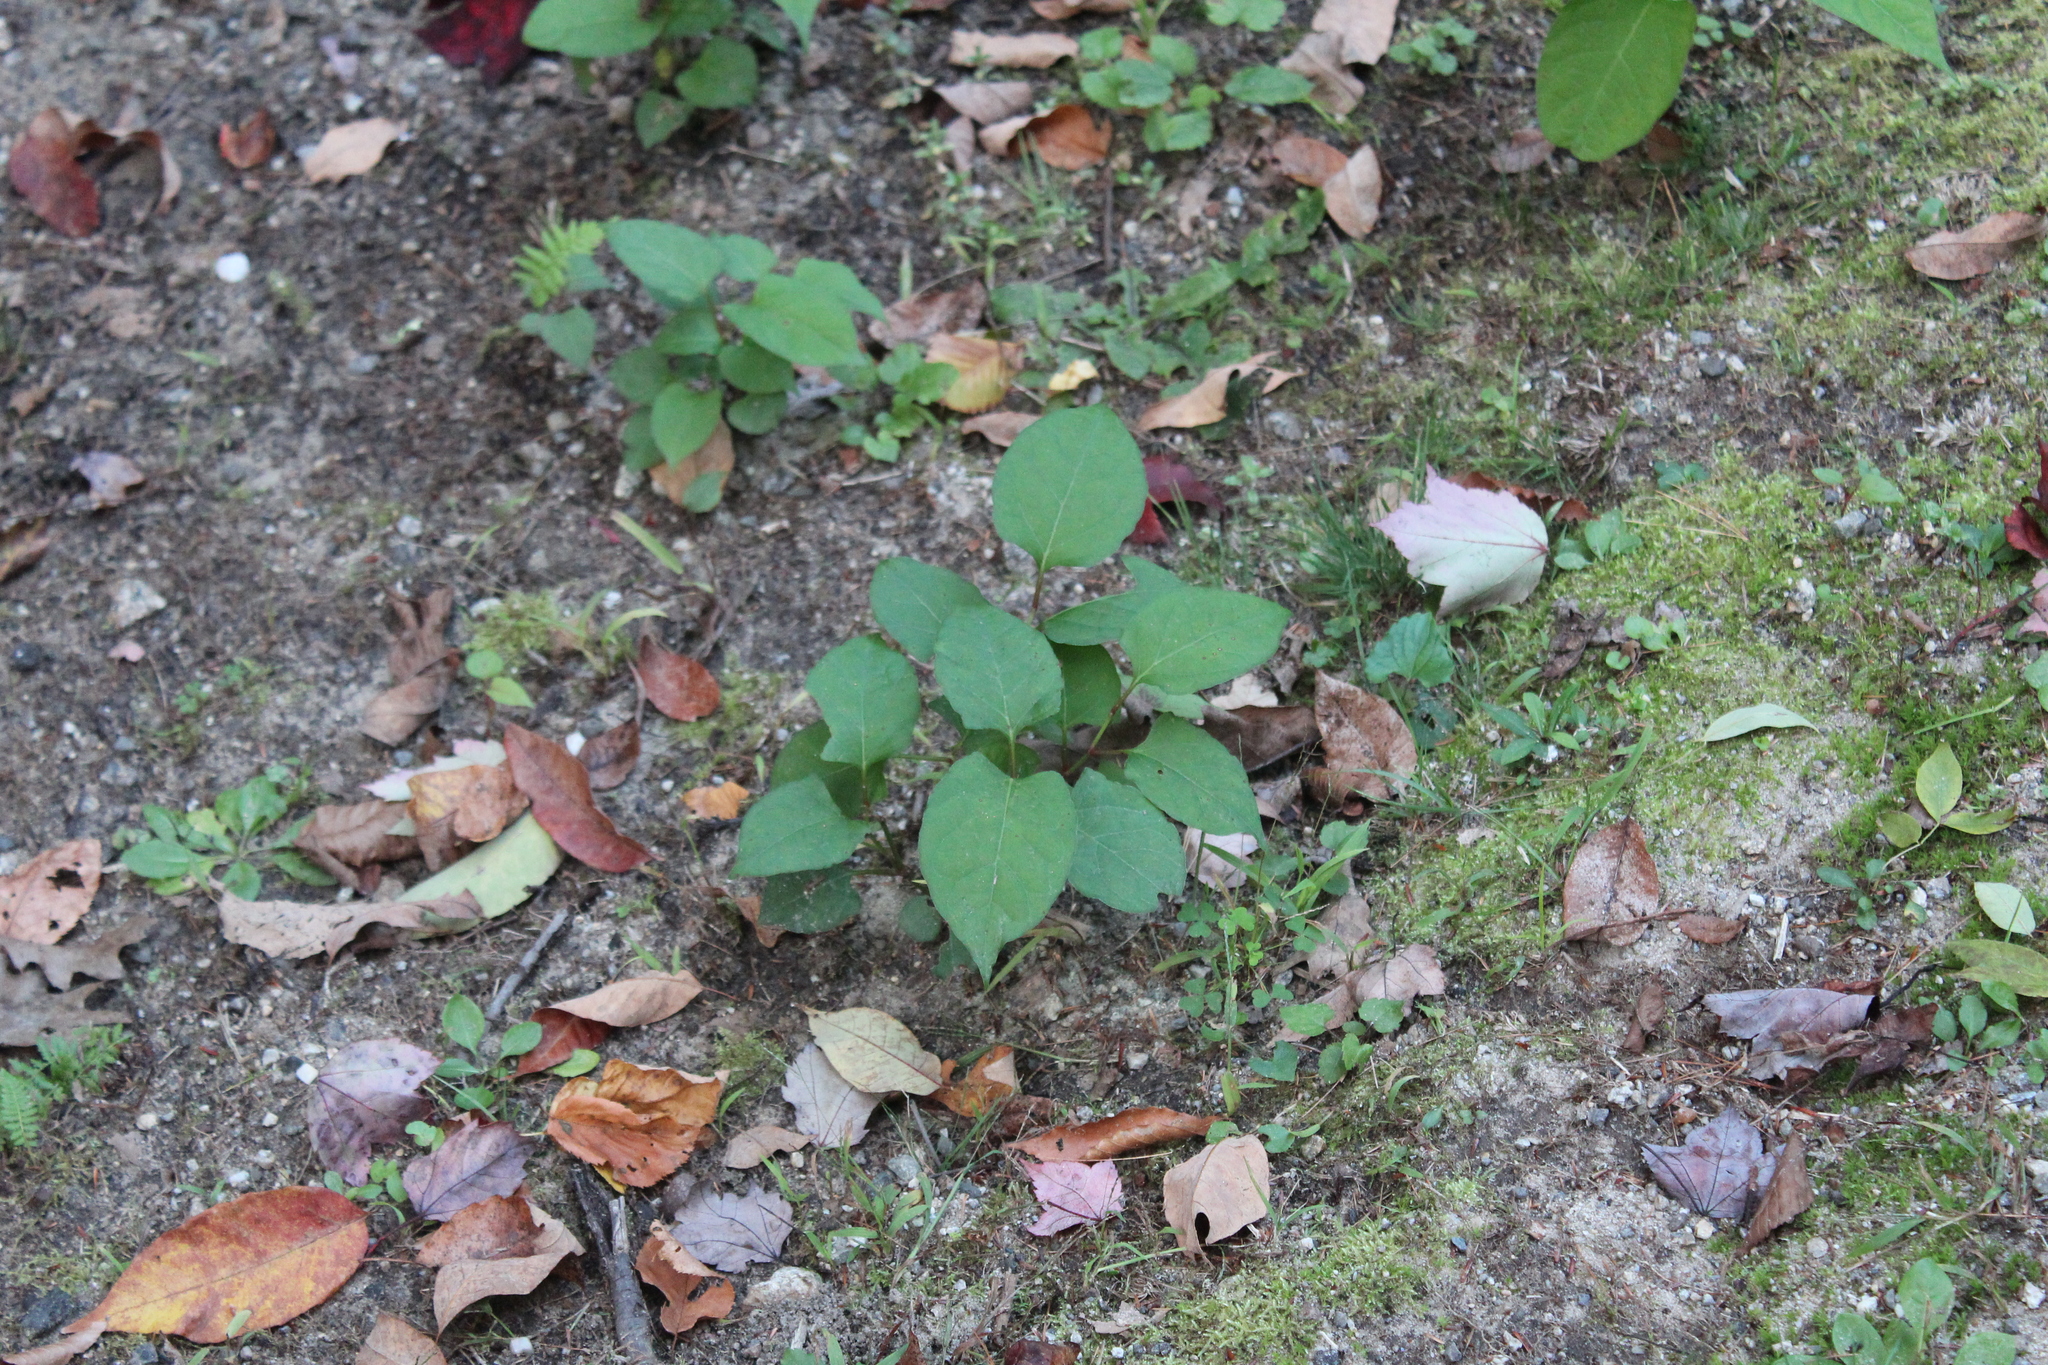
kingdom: Plantae
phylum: Tracheophyta
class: Magnoliopsida
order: Caryophyllales
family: Polygonaceae
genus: Reynoutria
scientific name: Reynoutria japonica
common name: Japanese knotweed
